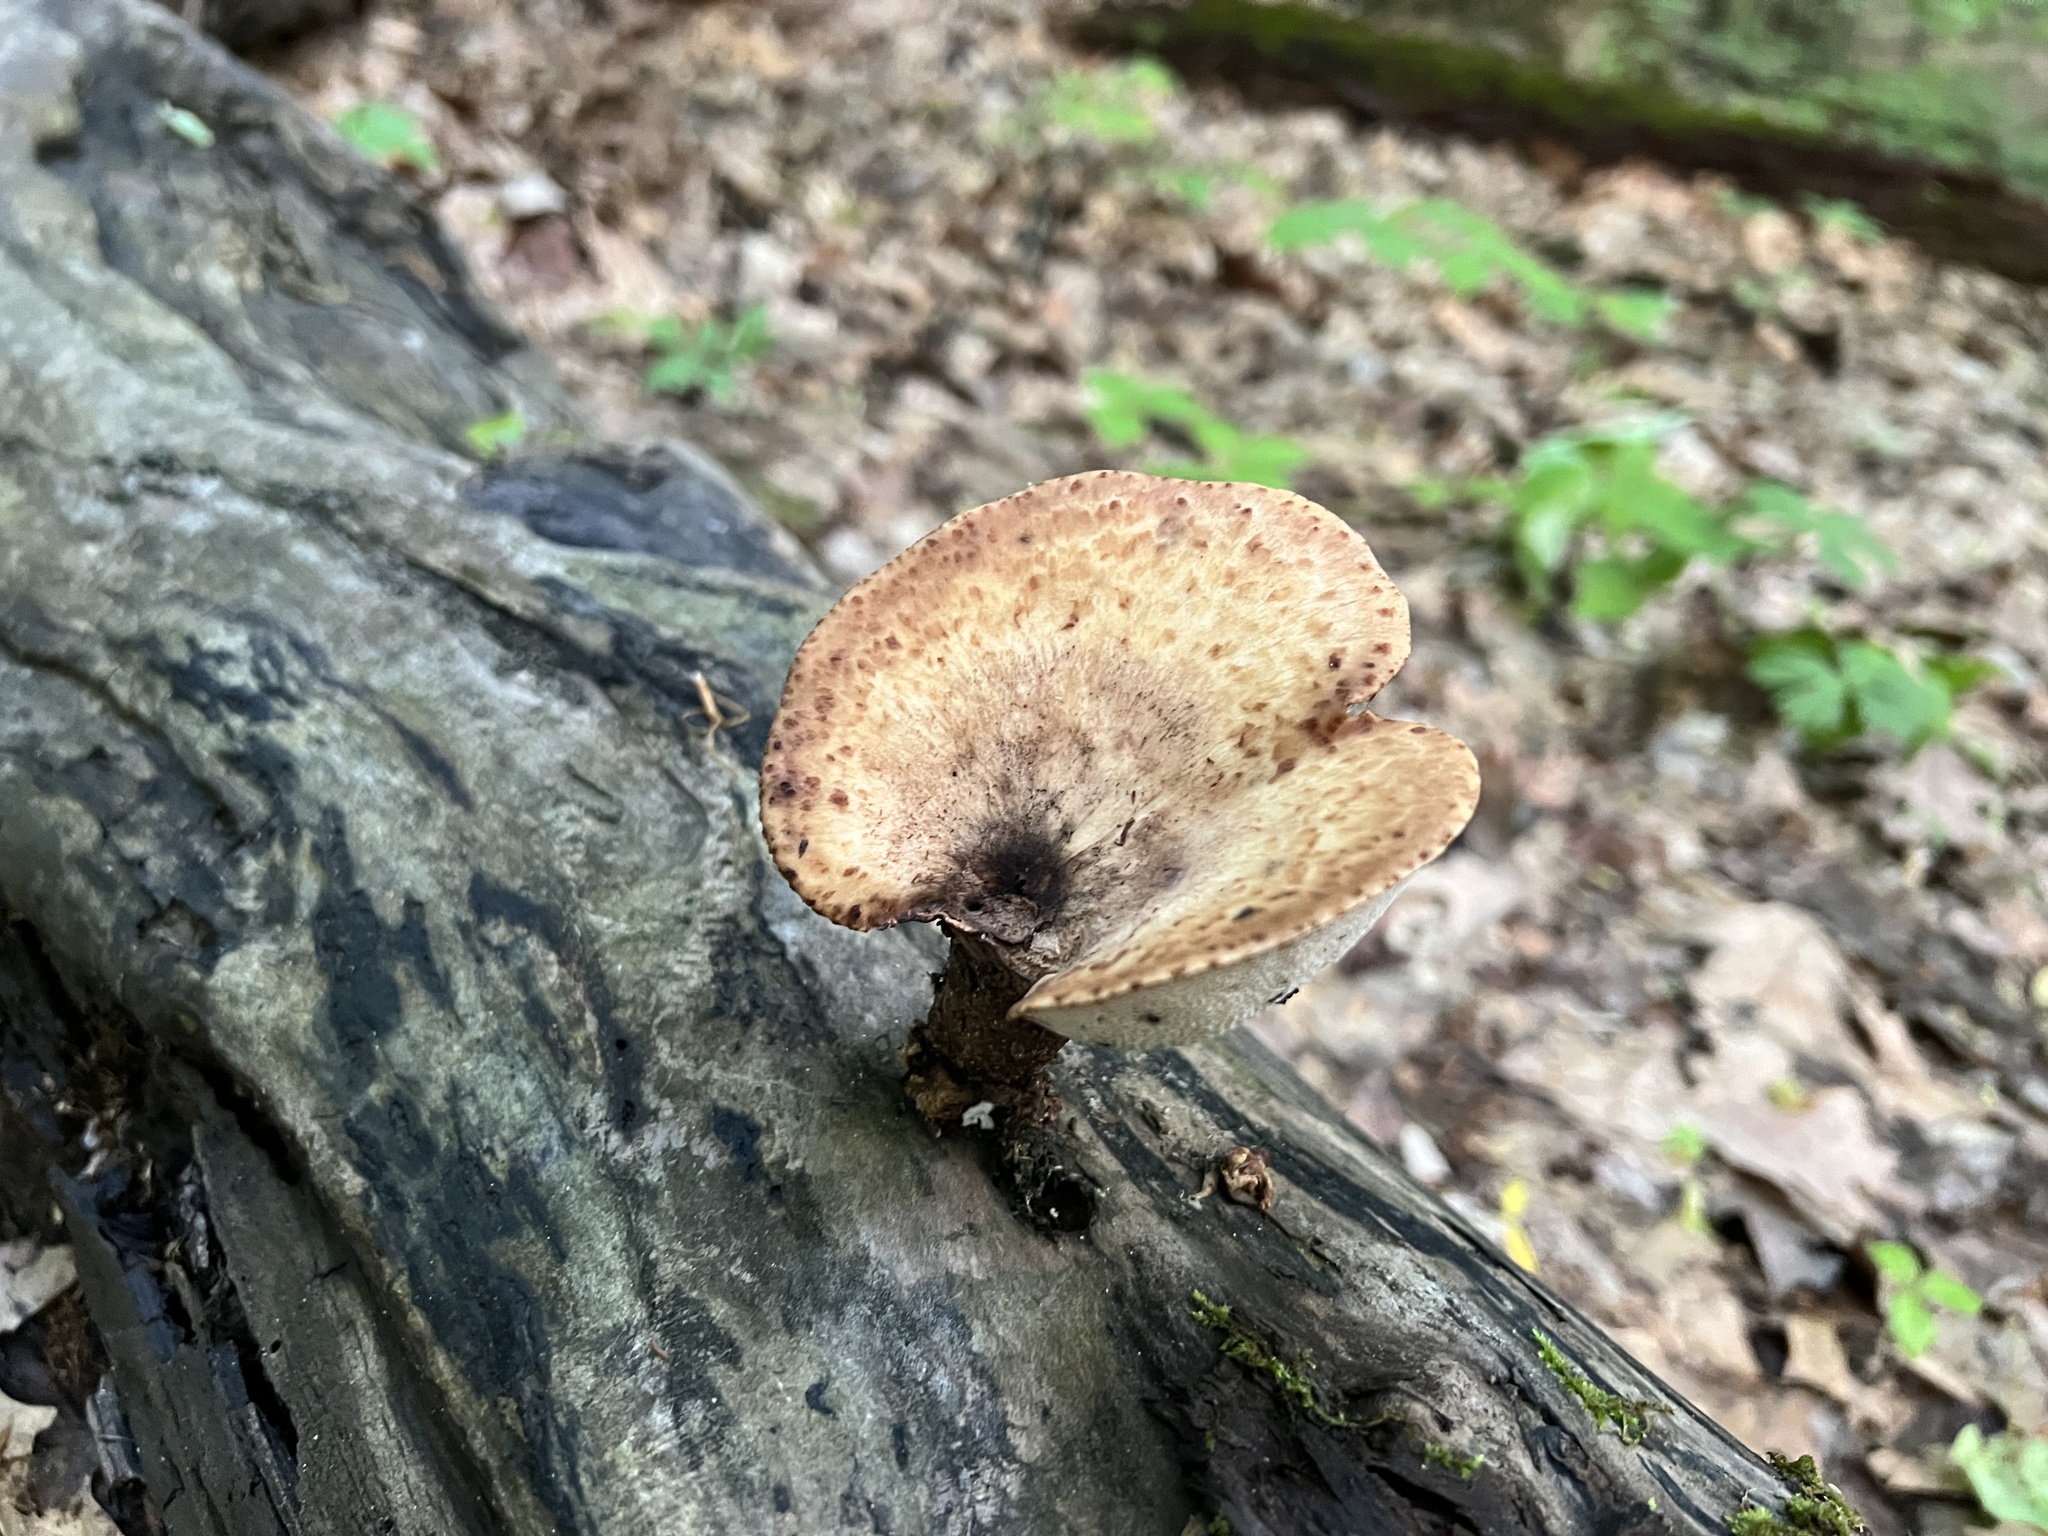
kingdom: Fungi
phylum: Basidiomycota
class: Agaricomycetes
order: Polyporales
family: Polyporaceae
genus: Cerioporus
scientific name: Cerioporus squamosus
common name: Dryad's saddle
